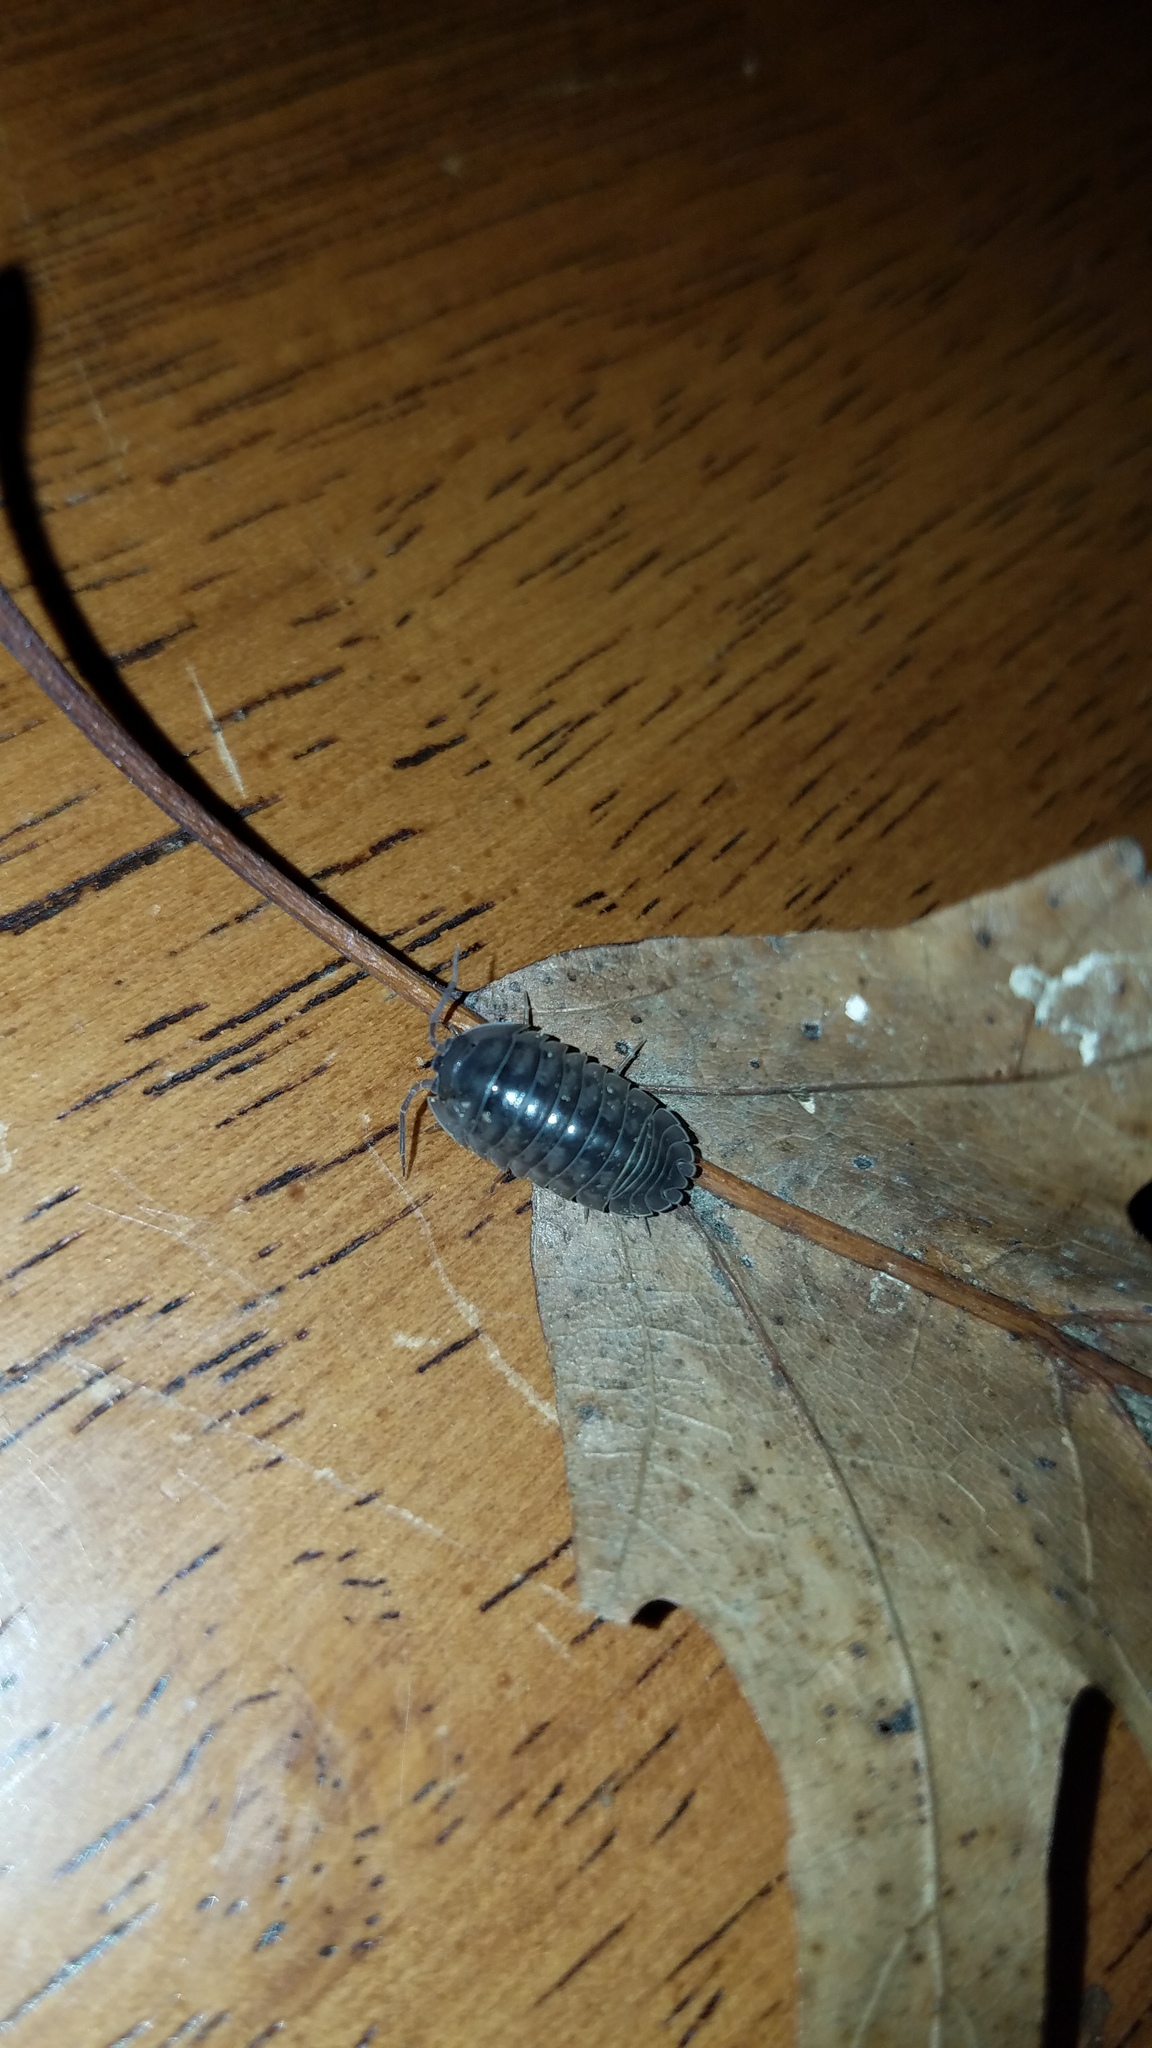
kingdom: Animalia
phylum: Arthropoda
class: Malacostraca
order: Isopoda
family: Armadillidiidae
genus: Armadillidium
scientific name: Armadillidium nasatum
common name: Isopod
